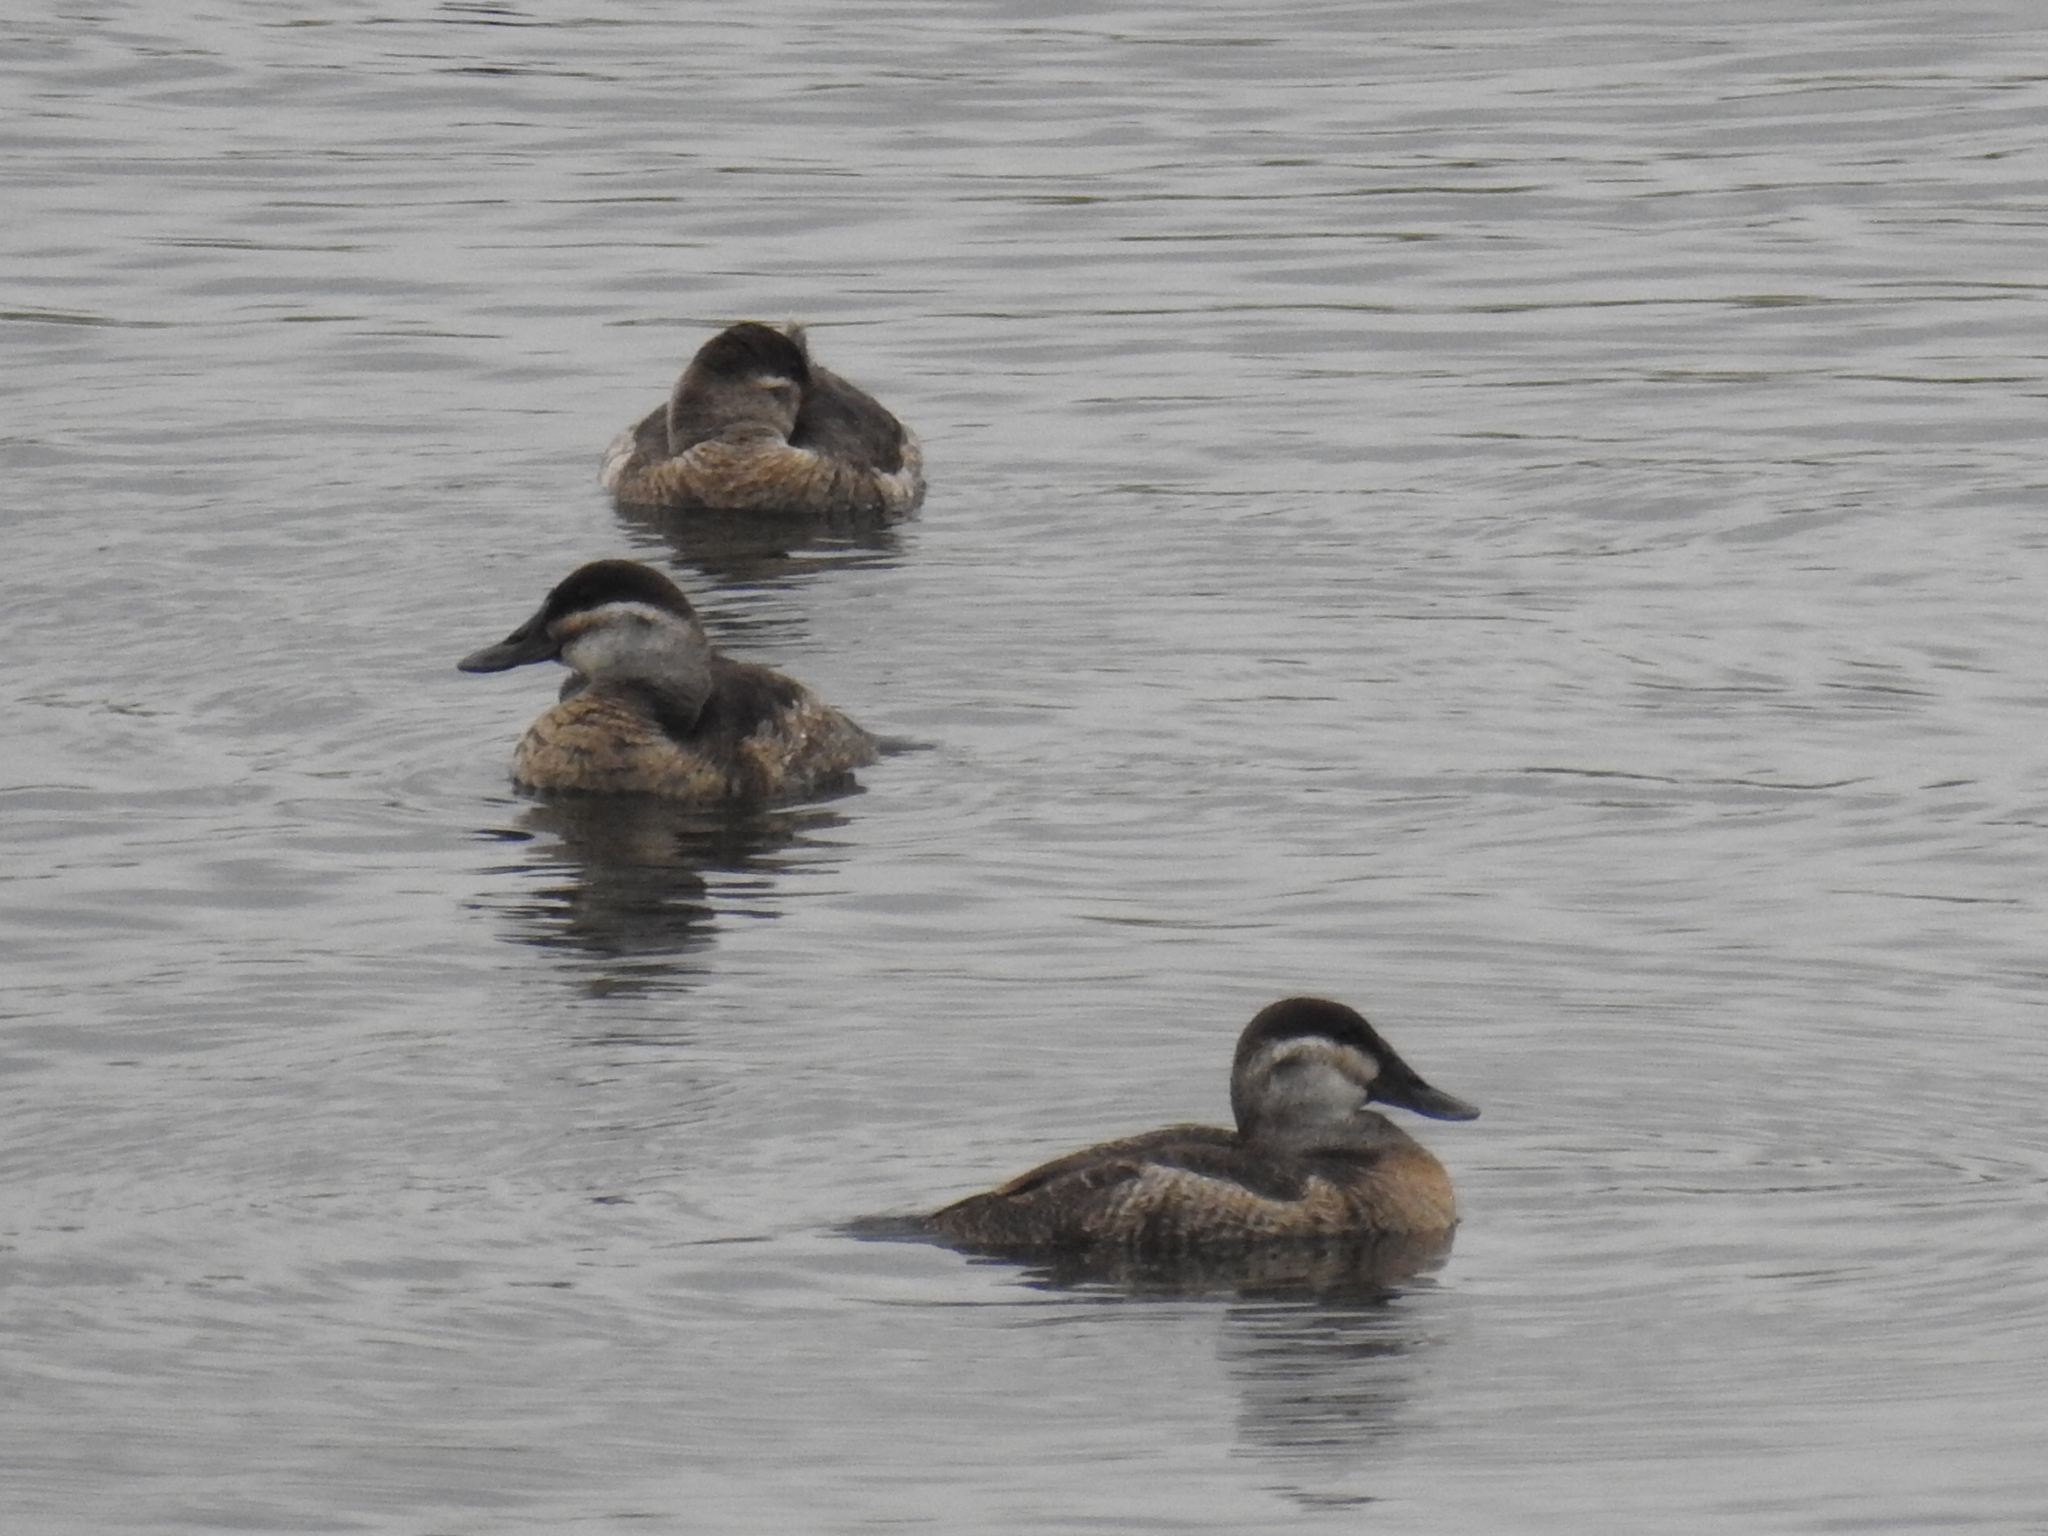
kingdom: Animalia
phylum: Chordata
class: Aves
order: Anseriformes
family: Anatidae
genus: Oxyura
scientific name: Oxyura jamaicensis
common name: Ruddy duck
